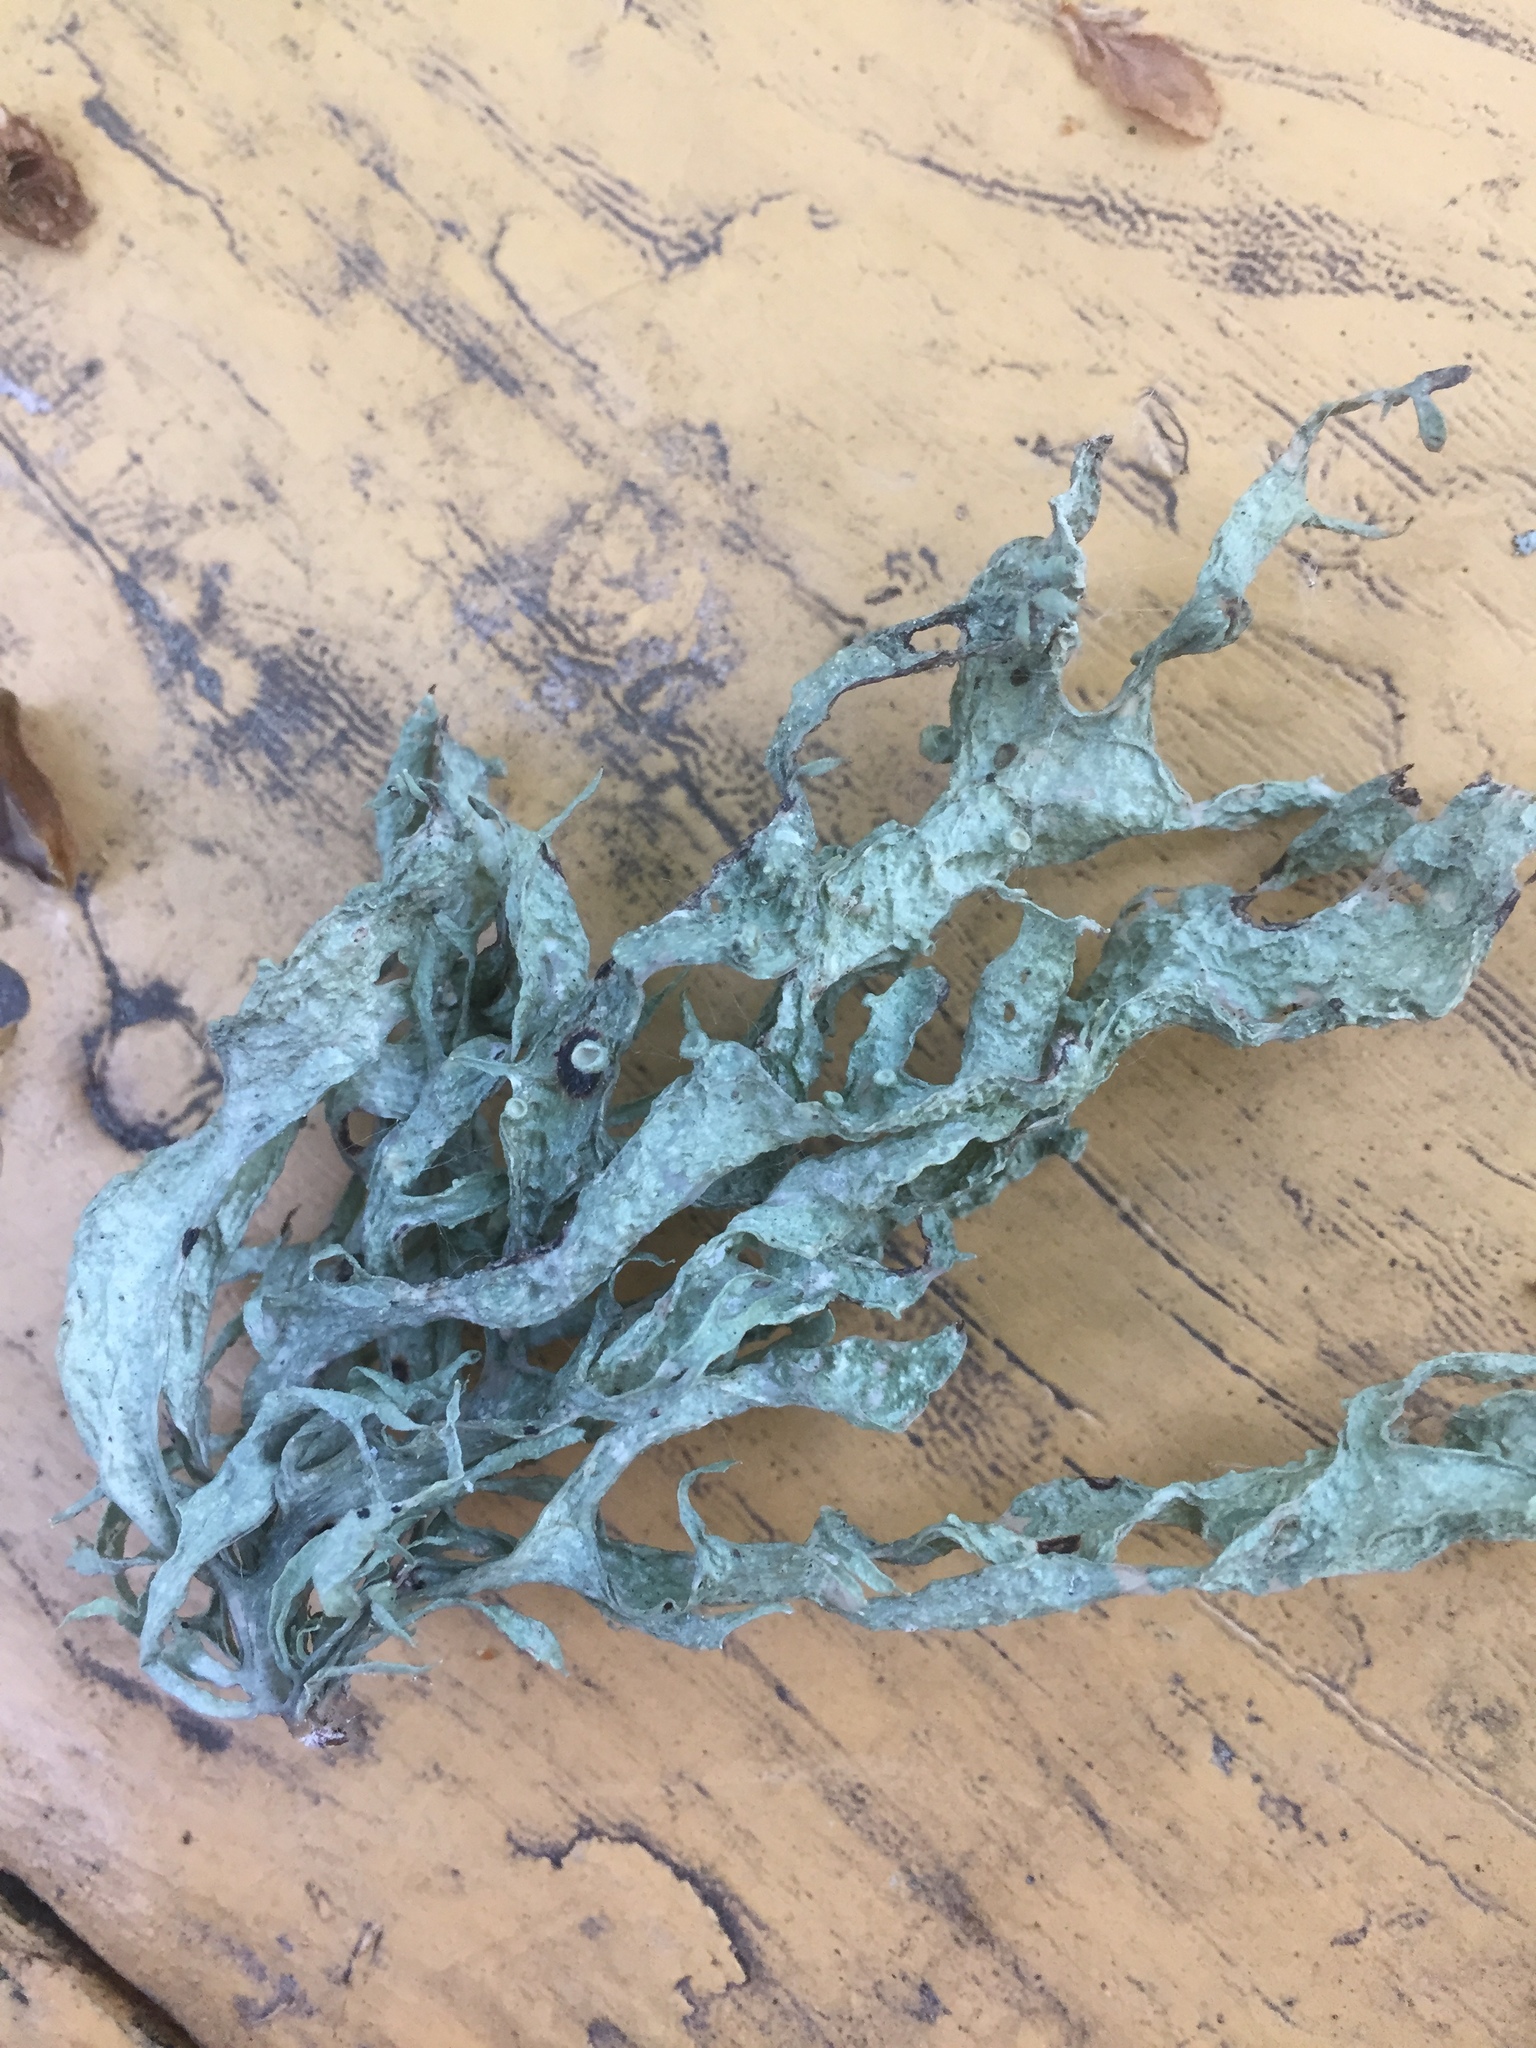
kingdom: Fungi
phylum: Ascomycota
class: Lecanoromycetes
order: Lecanorales
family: Ramalinaceae
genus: Ramalina
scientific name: Ramalina fraxinea
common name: Cartilage lichen
